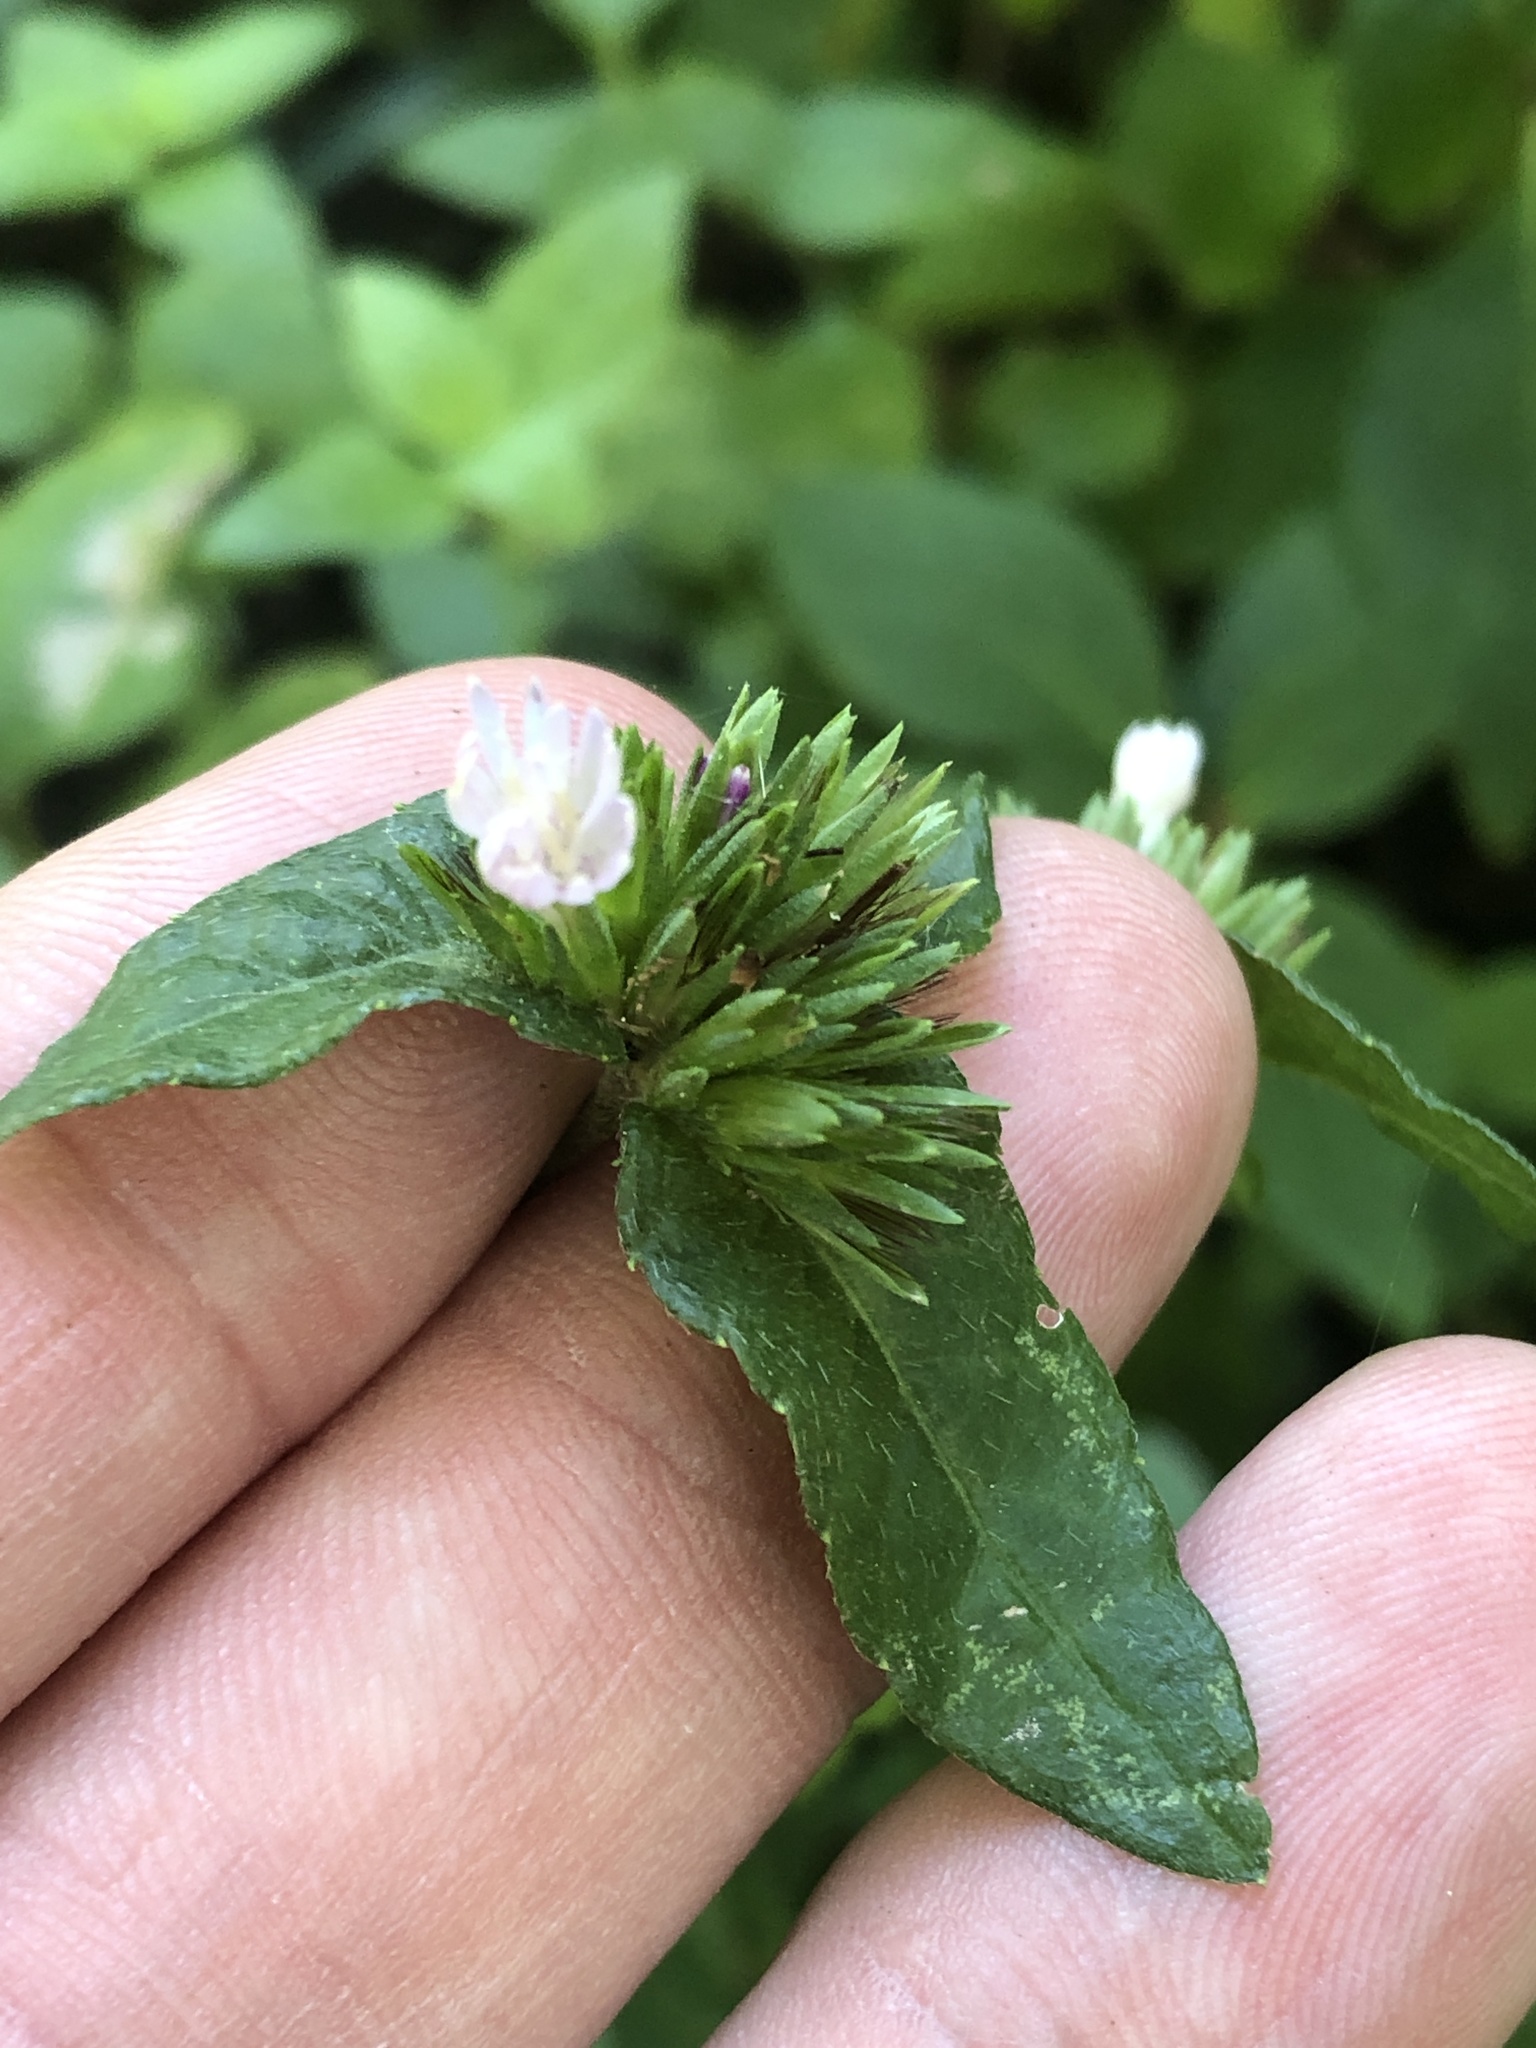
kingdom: Plantae
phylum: Tracheophyta
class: Magnoliopsida
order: Asterales
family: Asteraceae
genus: Elephantopus
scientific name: Elephantopus carolinianus
